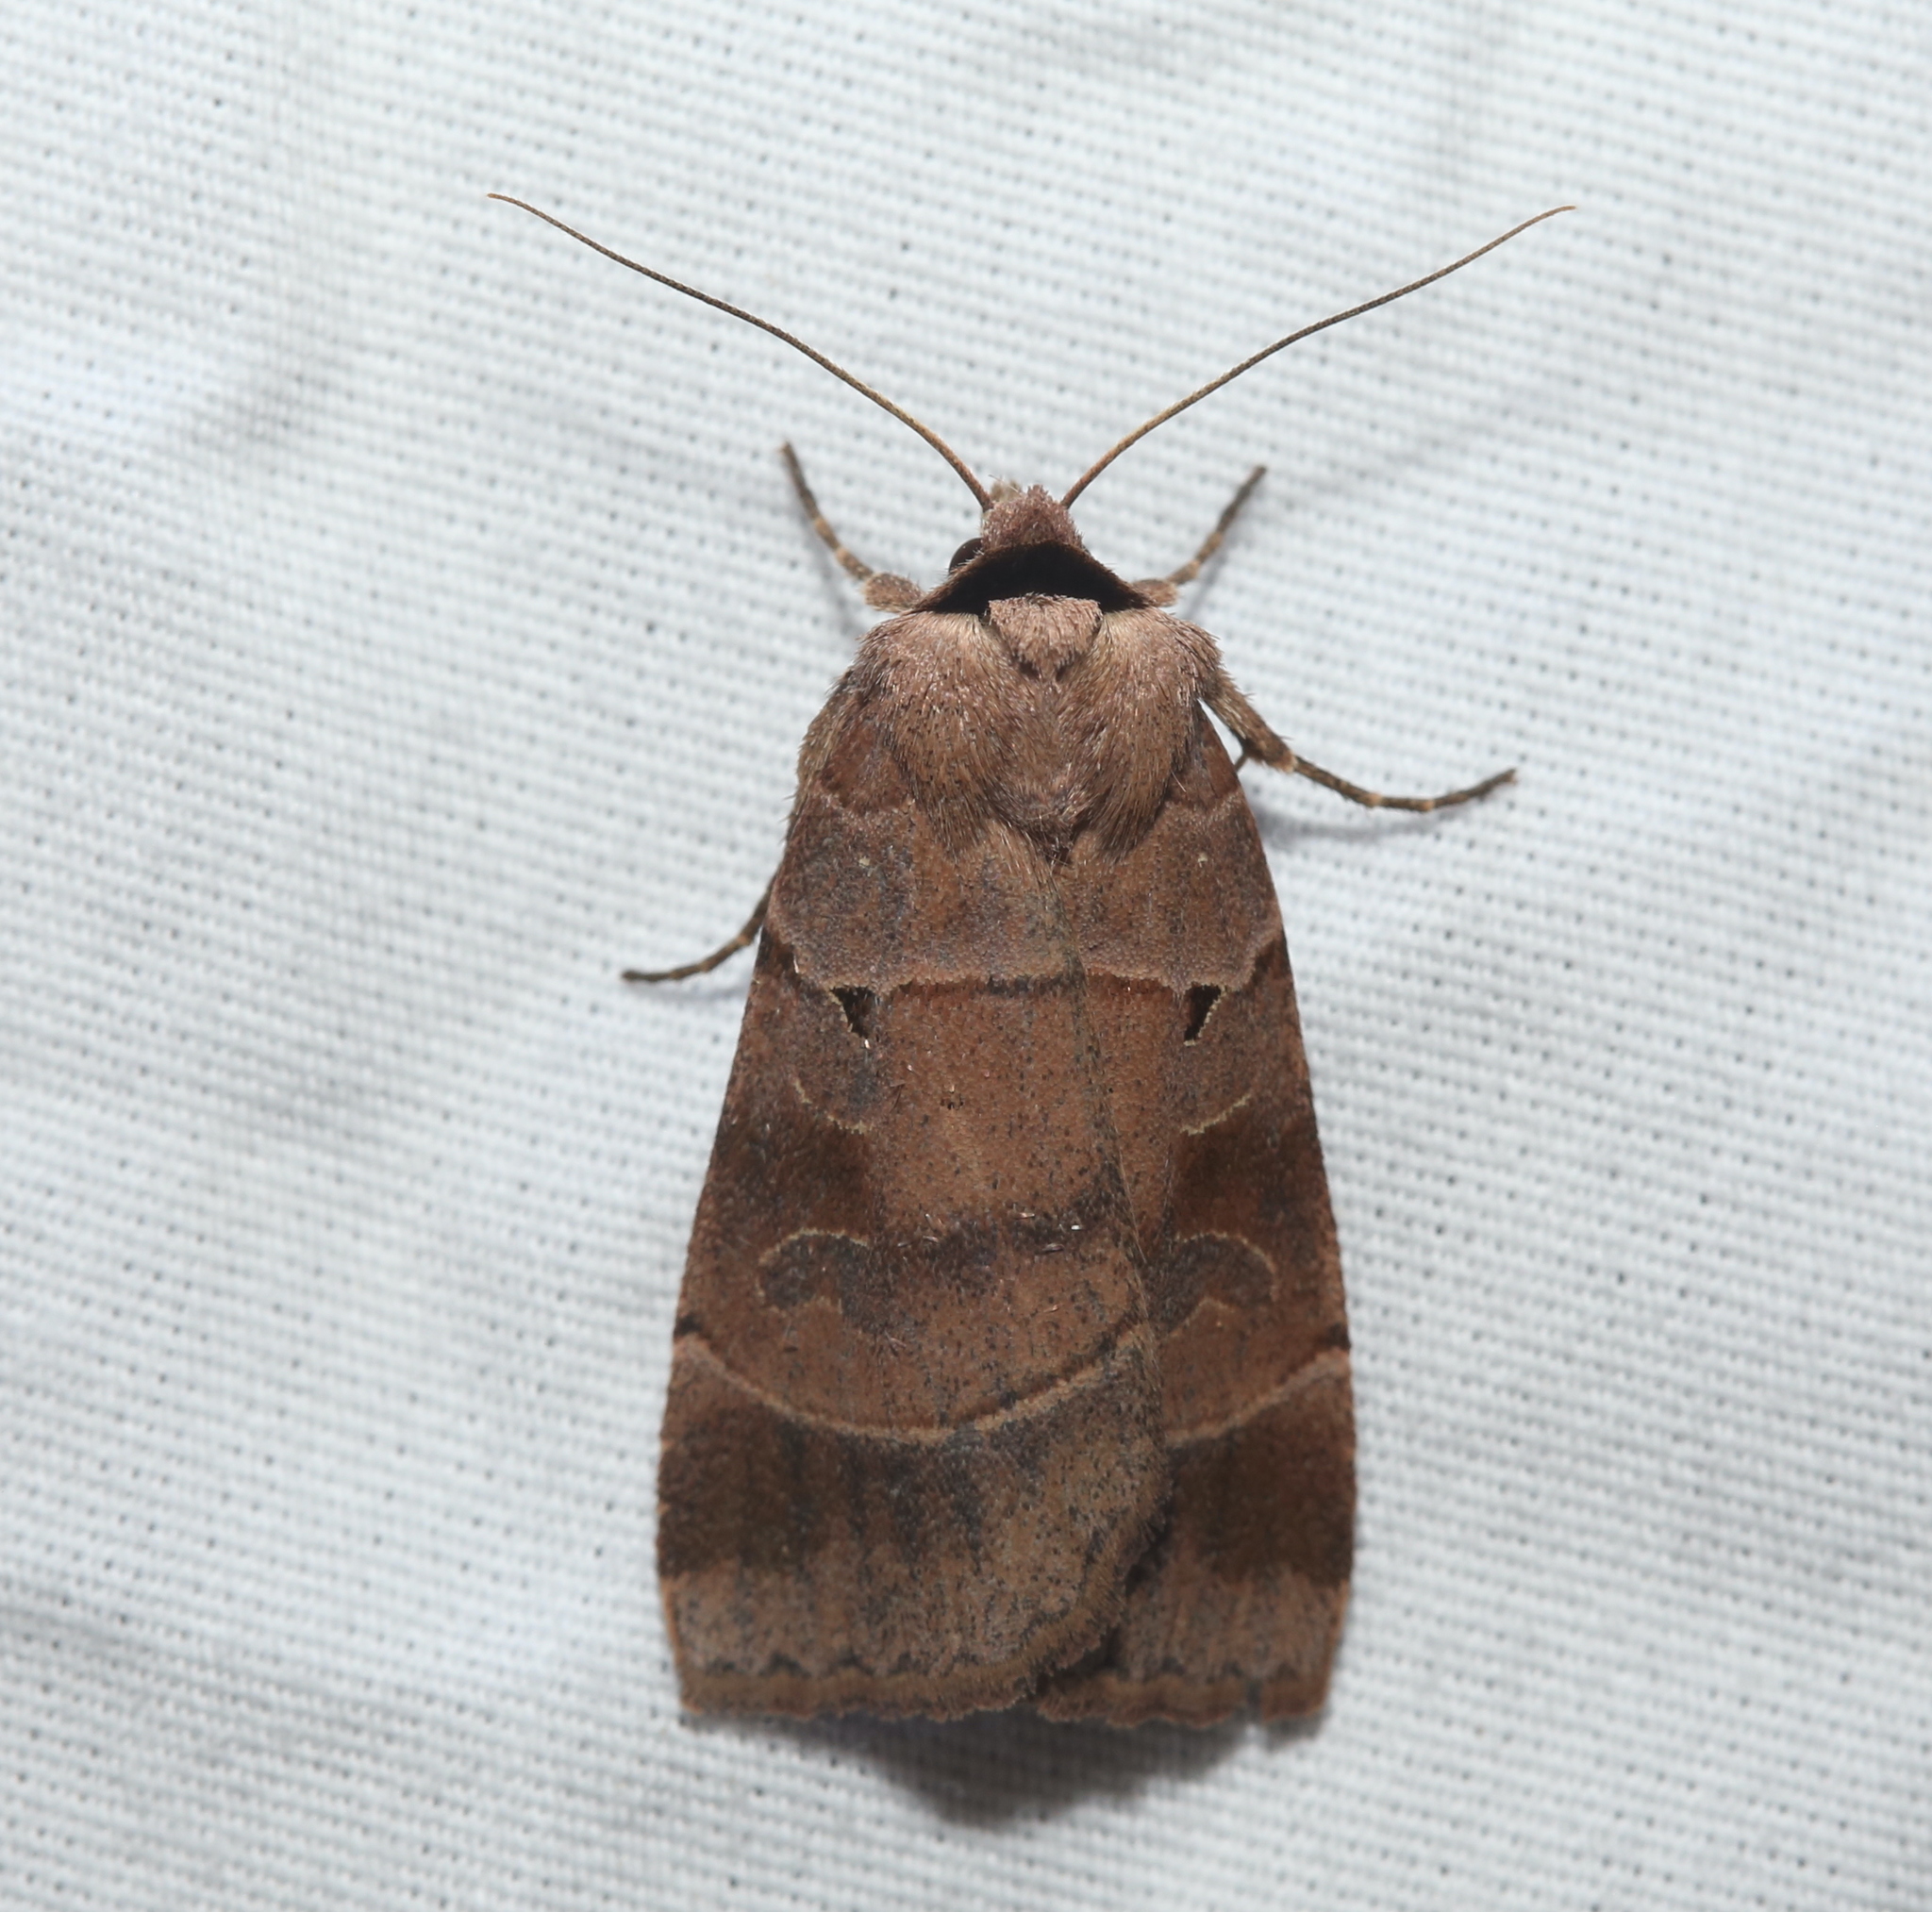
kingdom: Animalia
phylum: Arthropoda
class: Insecta
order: Lepidoptera
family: Noctuidae
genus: Agnorisma
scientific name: Agnorisma badinodis
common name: Pale-banded dart
